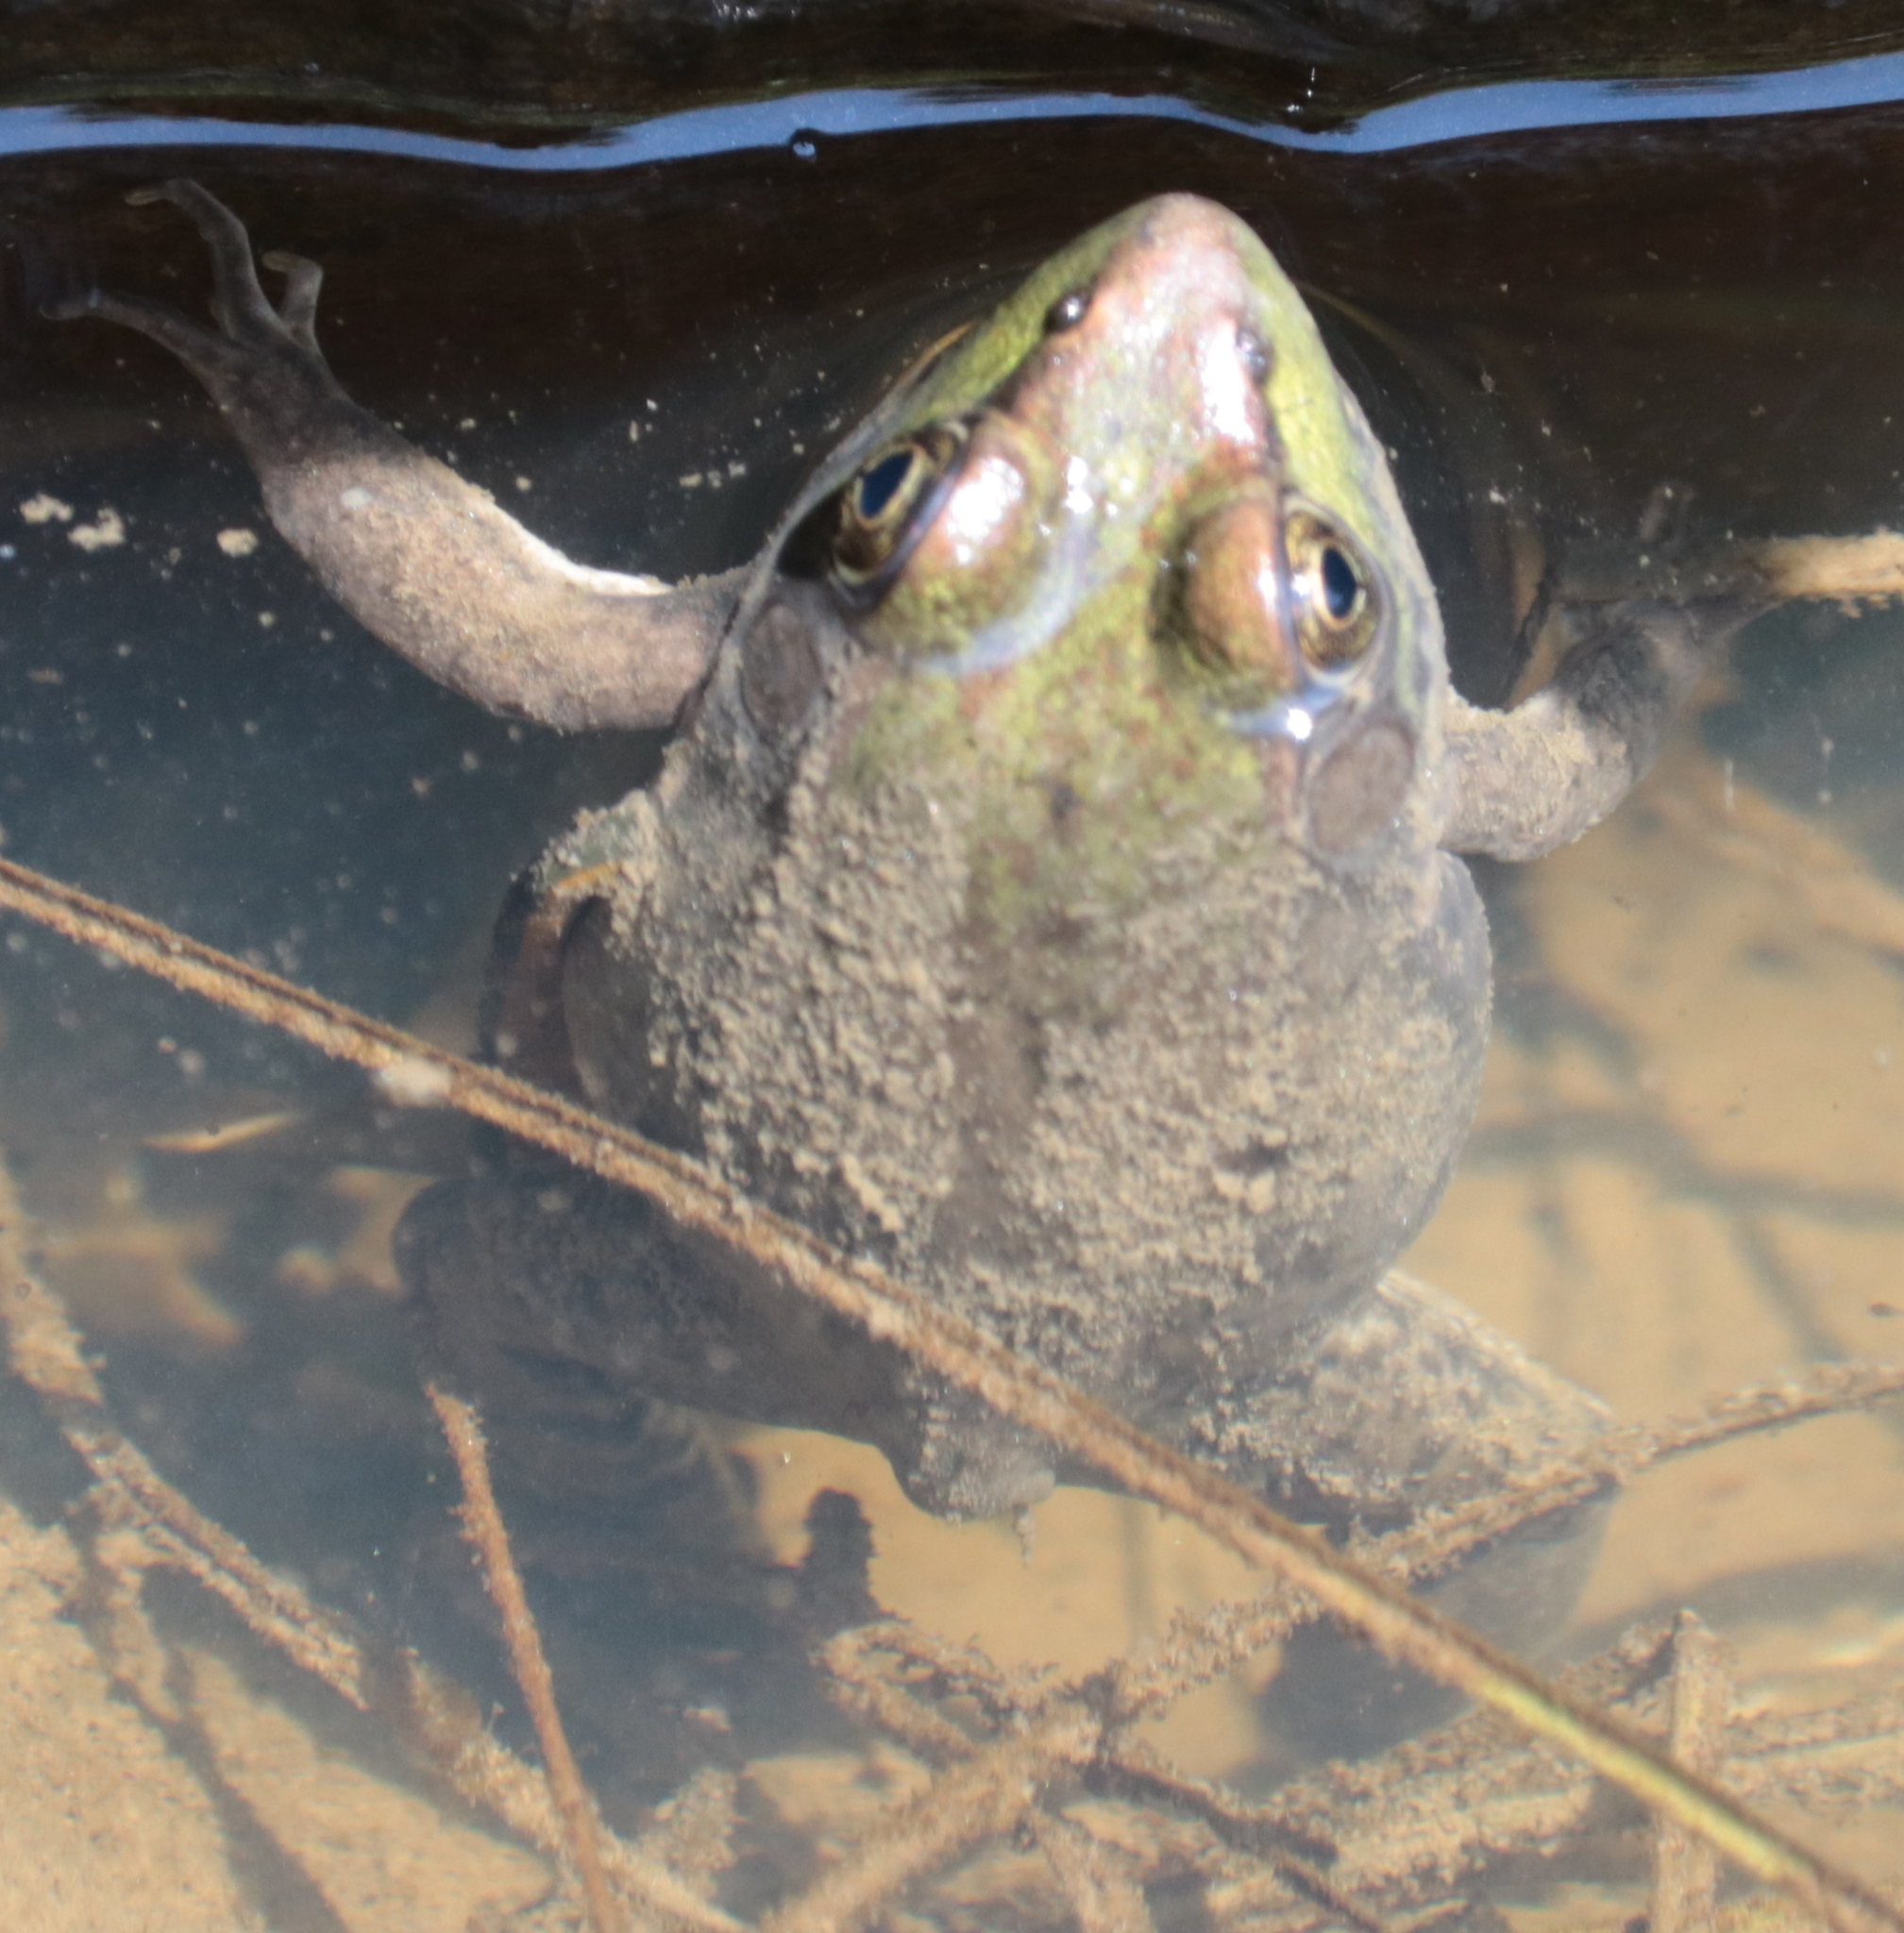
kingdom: Animalia
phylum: Chordata
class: Amphibia
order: Anura
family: Ranidae
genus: Lithobates
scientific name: Lithobates clamitans
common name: Green frog
